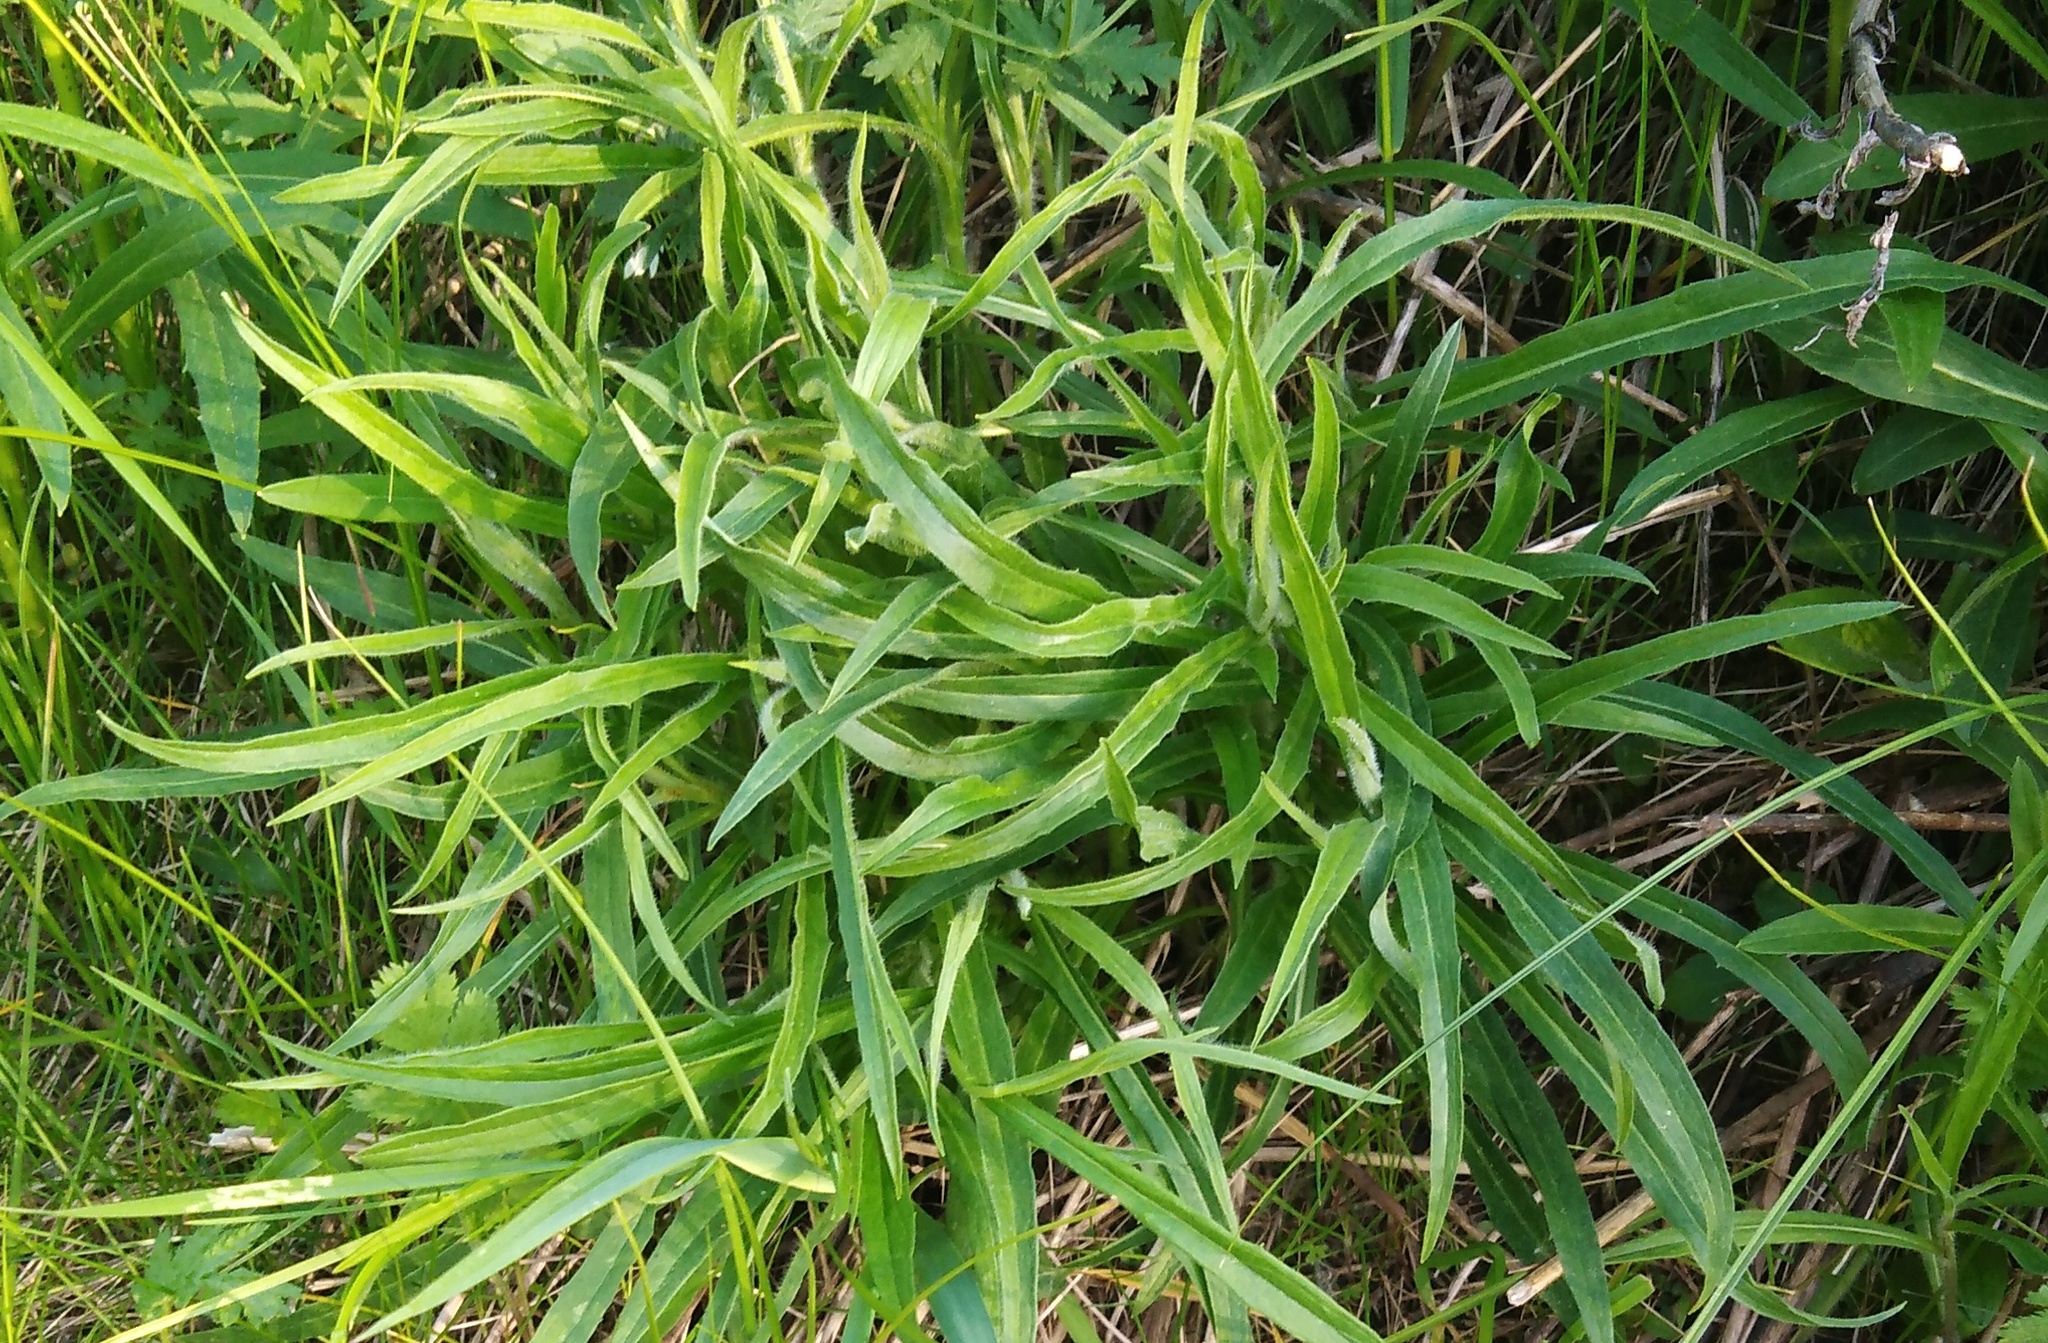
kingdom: Plantae
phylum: Tracheophyta
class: Magnoliopsida
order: Apiales
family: Apiaceae
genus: Falcaria
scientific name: Falcaria vulgaris
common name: Longleaf
